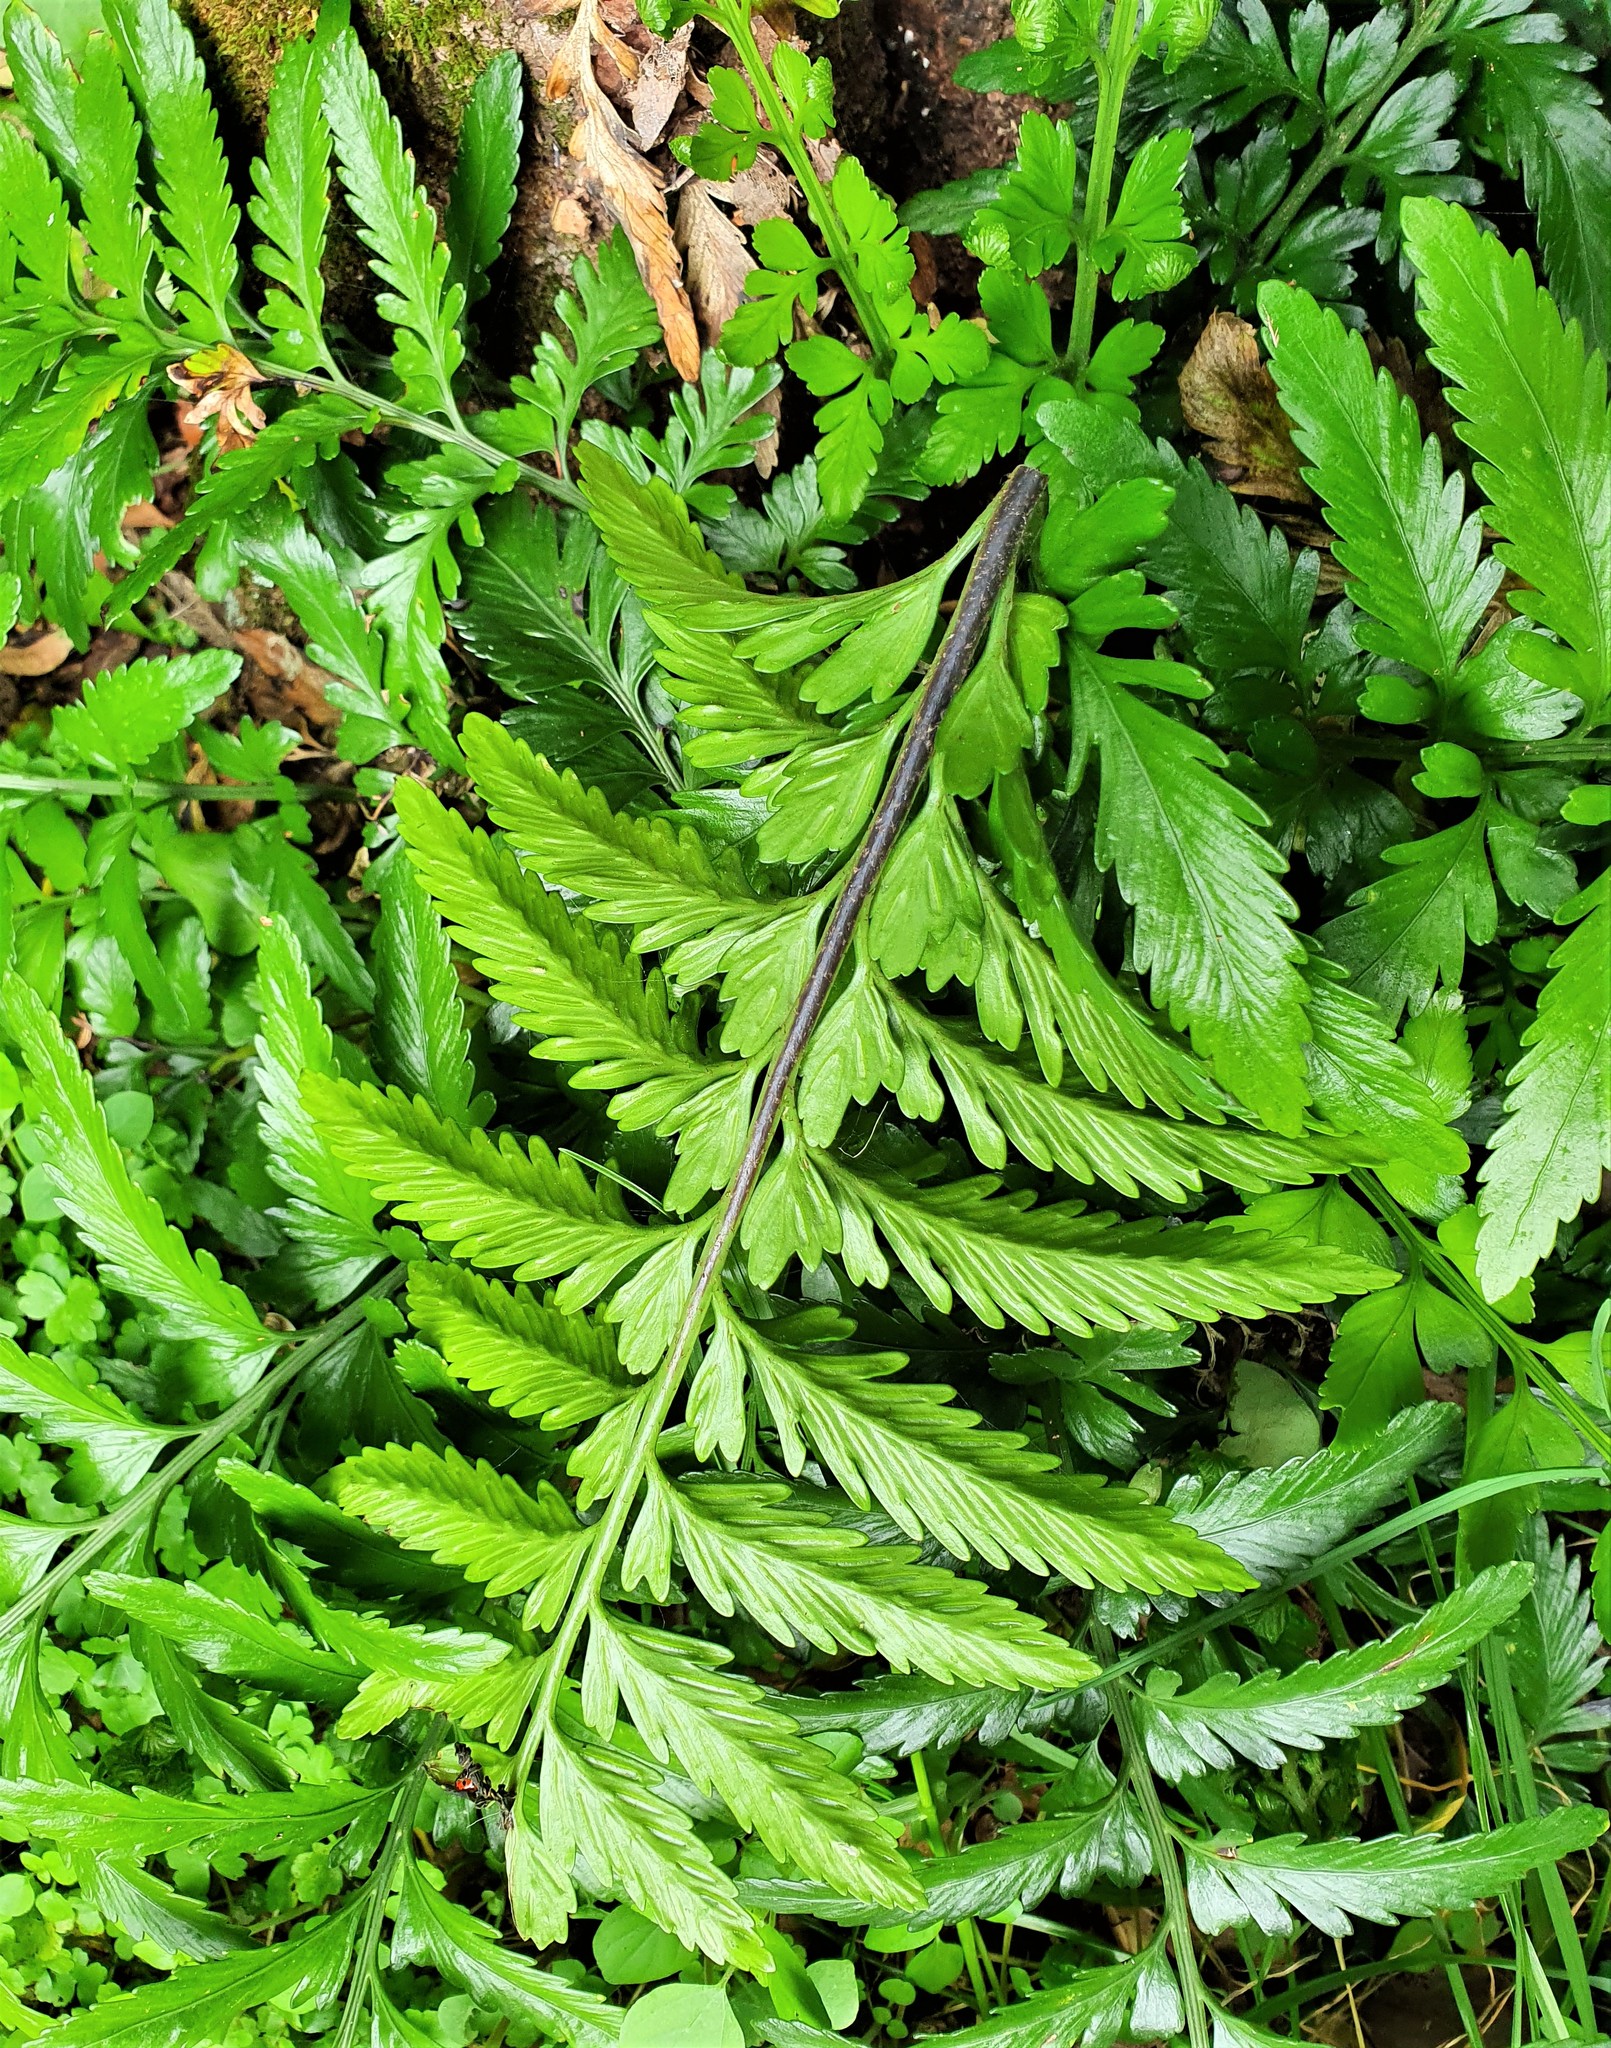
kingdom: Plantae
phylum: Tracheophyta
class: Polypodiopsida
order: Polypodiales
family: Aspleniaceae
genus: Asplenium
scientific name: Asplenium lyallii
